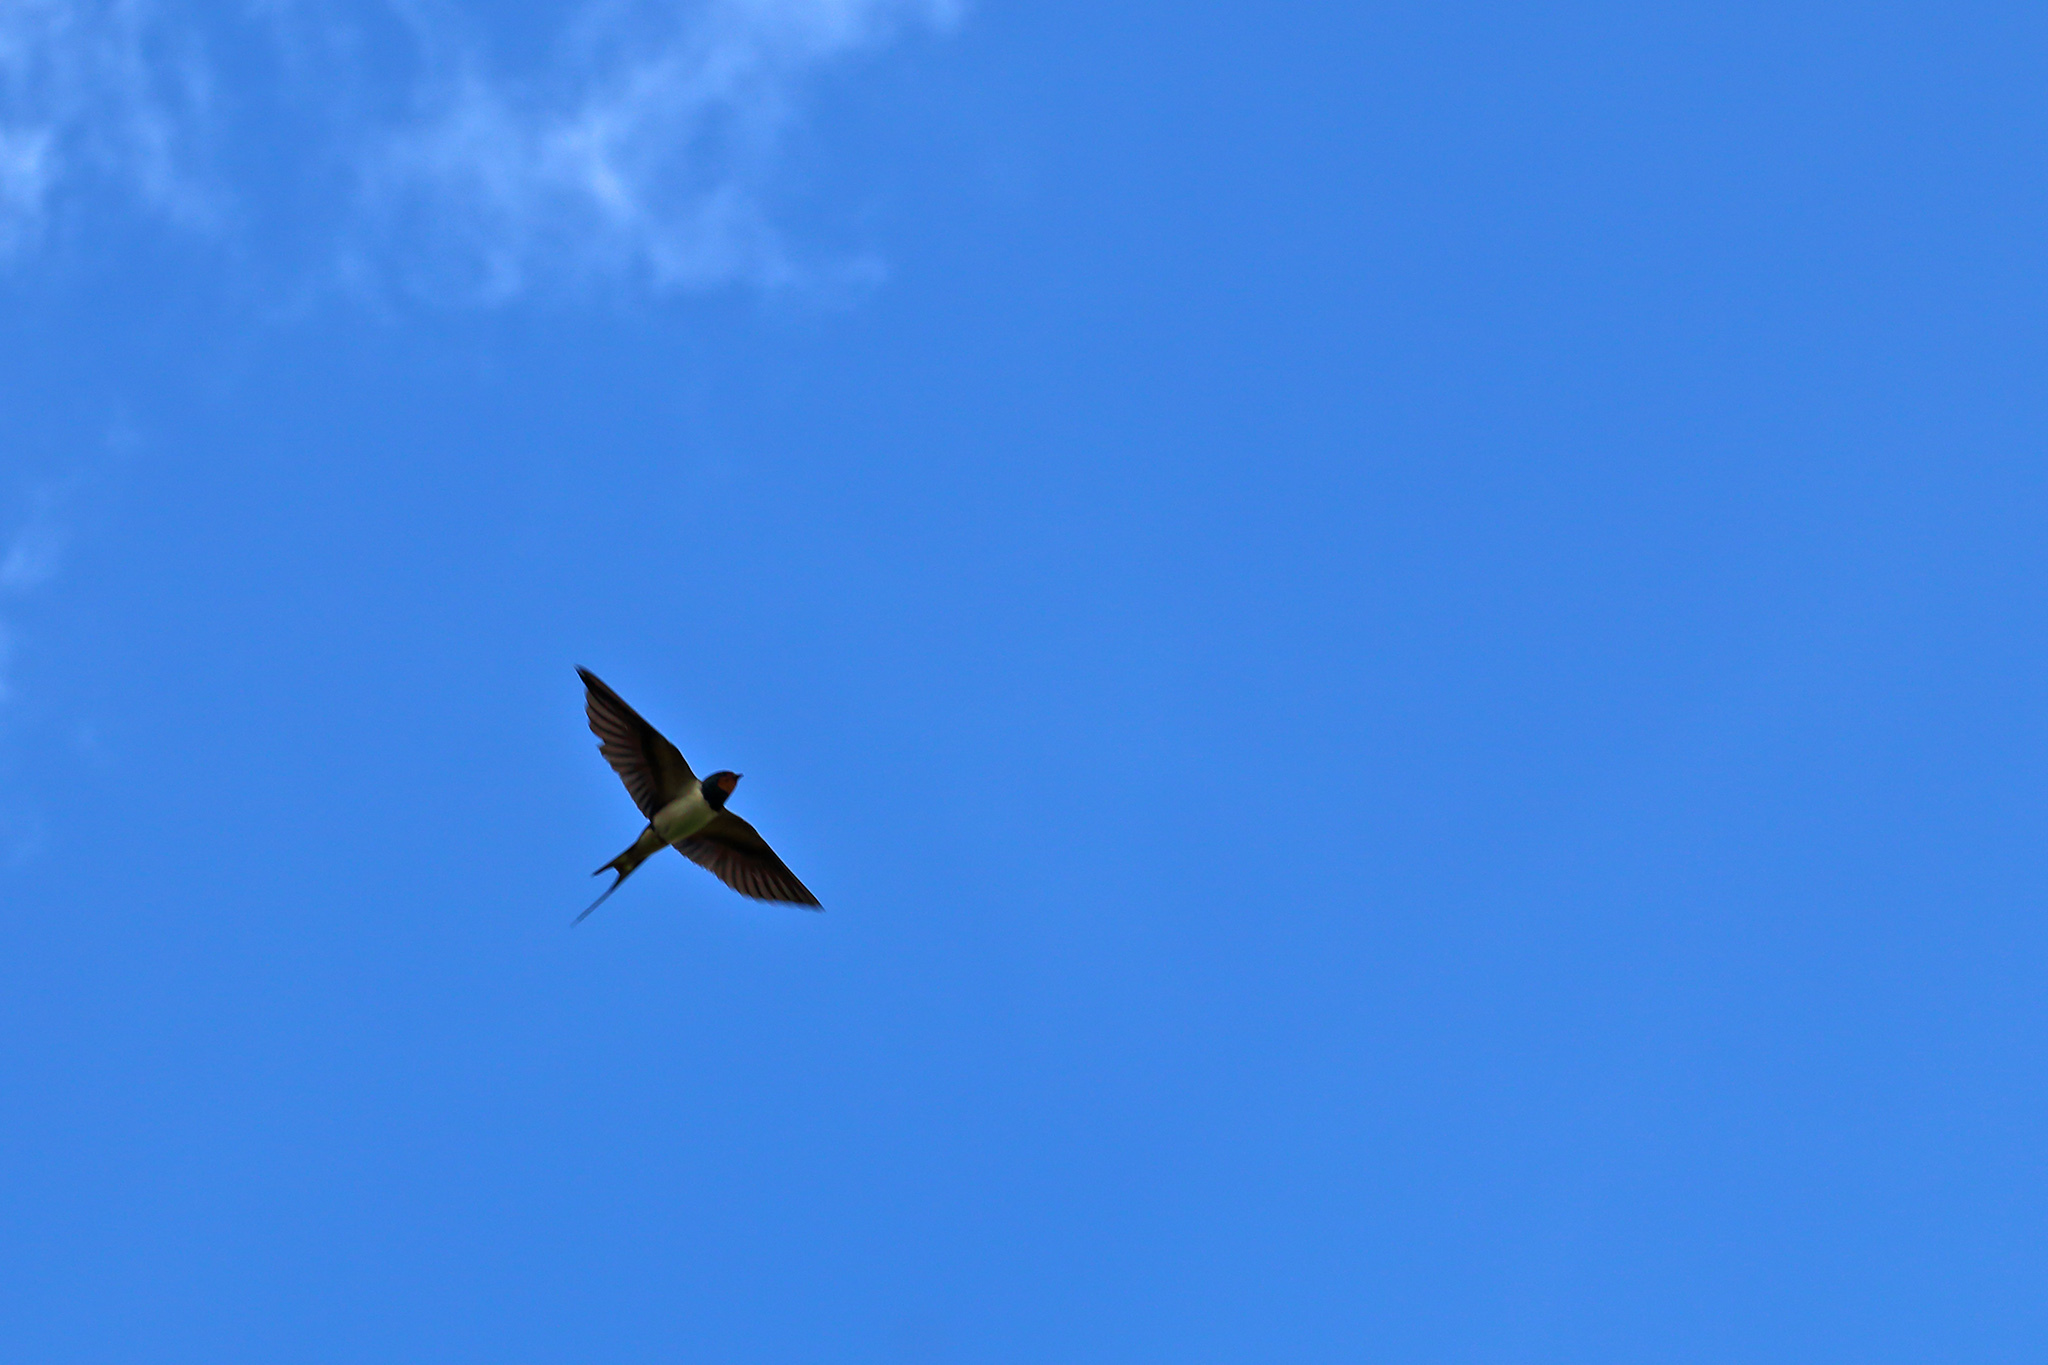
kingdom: Animalia
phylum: Chordata
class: Aves
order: Passeriformes
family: Hirundinidae
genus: Hirundo
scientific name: Hirundo rustica
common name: Barn swallow
